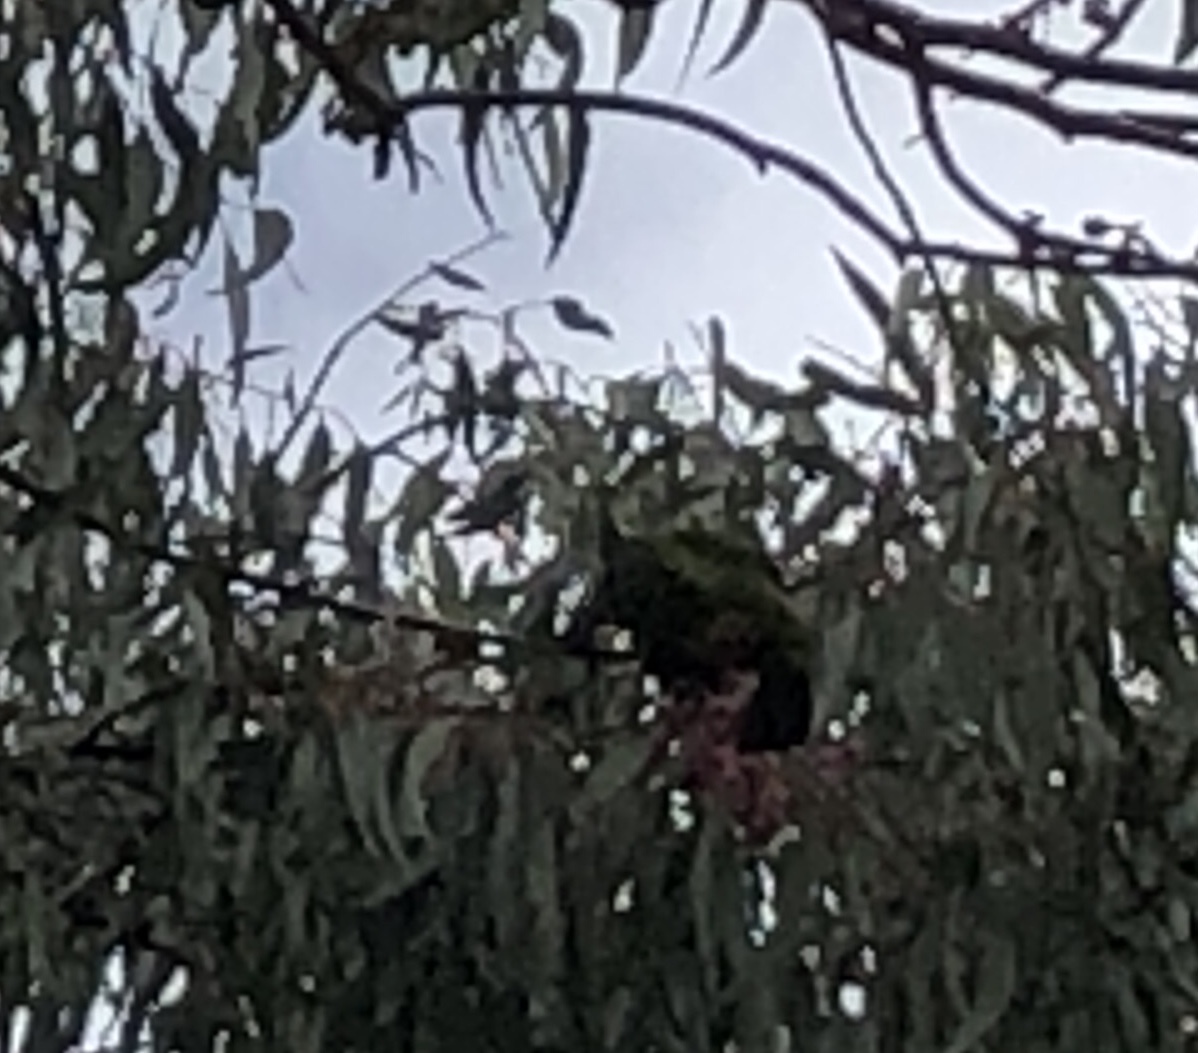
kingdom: Animalia
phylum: Chordata
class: Aves
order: Psittaciformes
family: Psittacidae
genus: Trichoglossus
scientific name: Trichoglossus haematodus
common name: Coconut lorikeet
